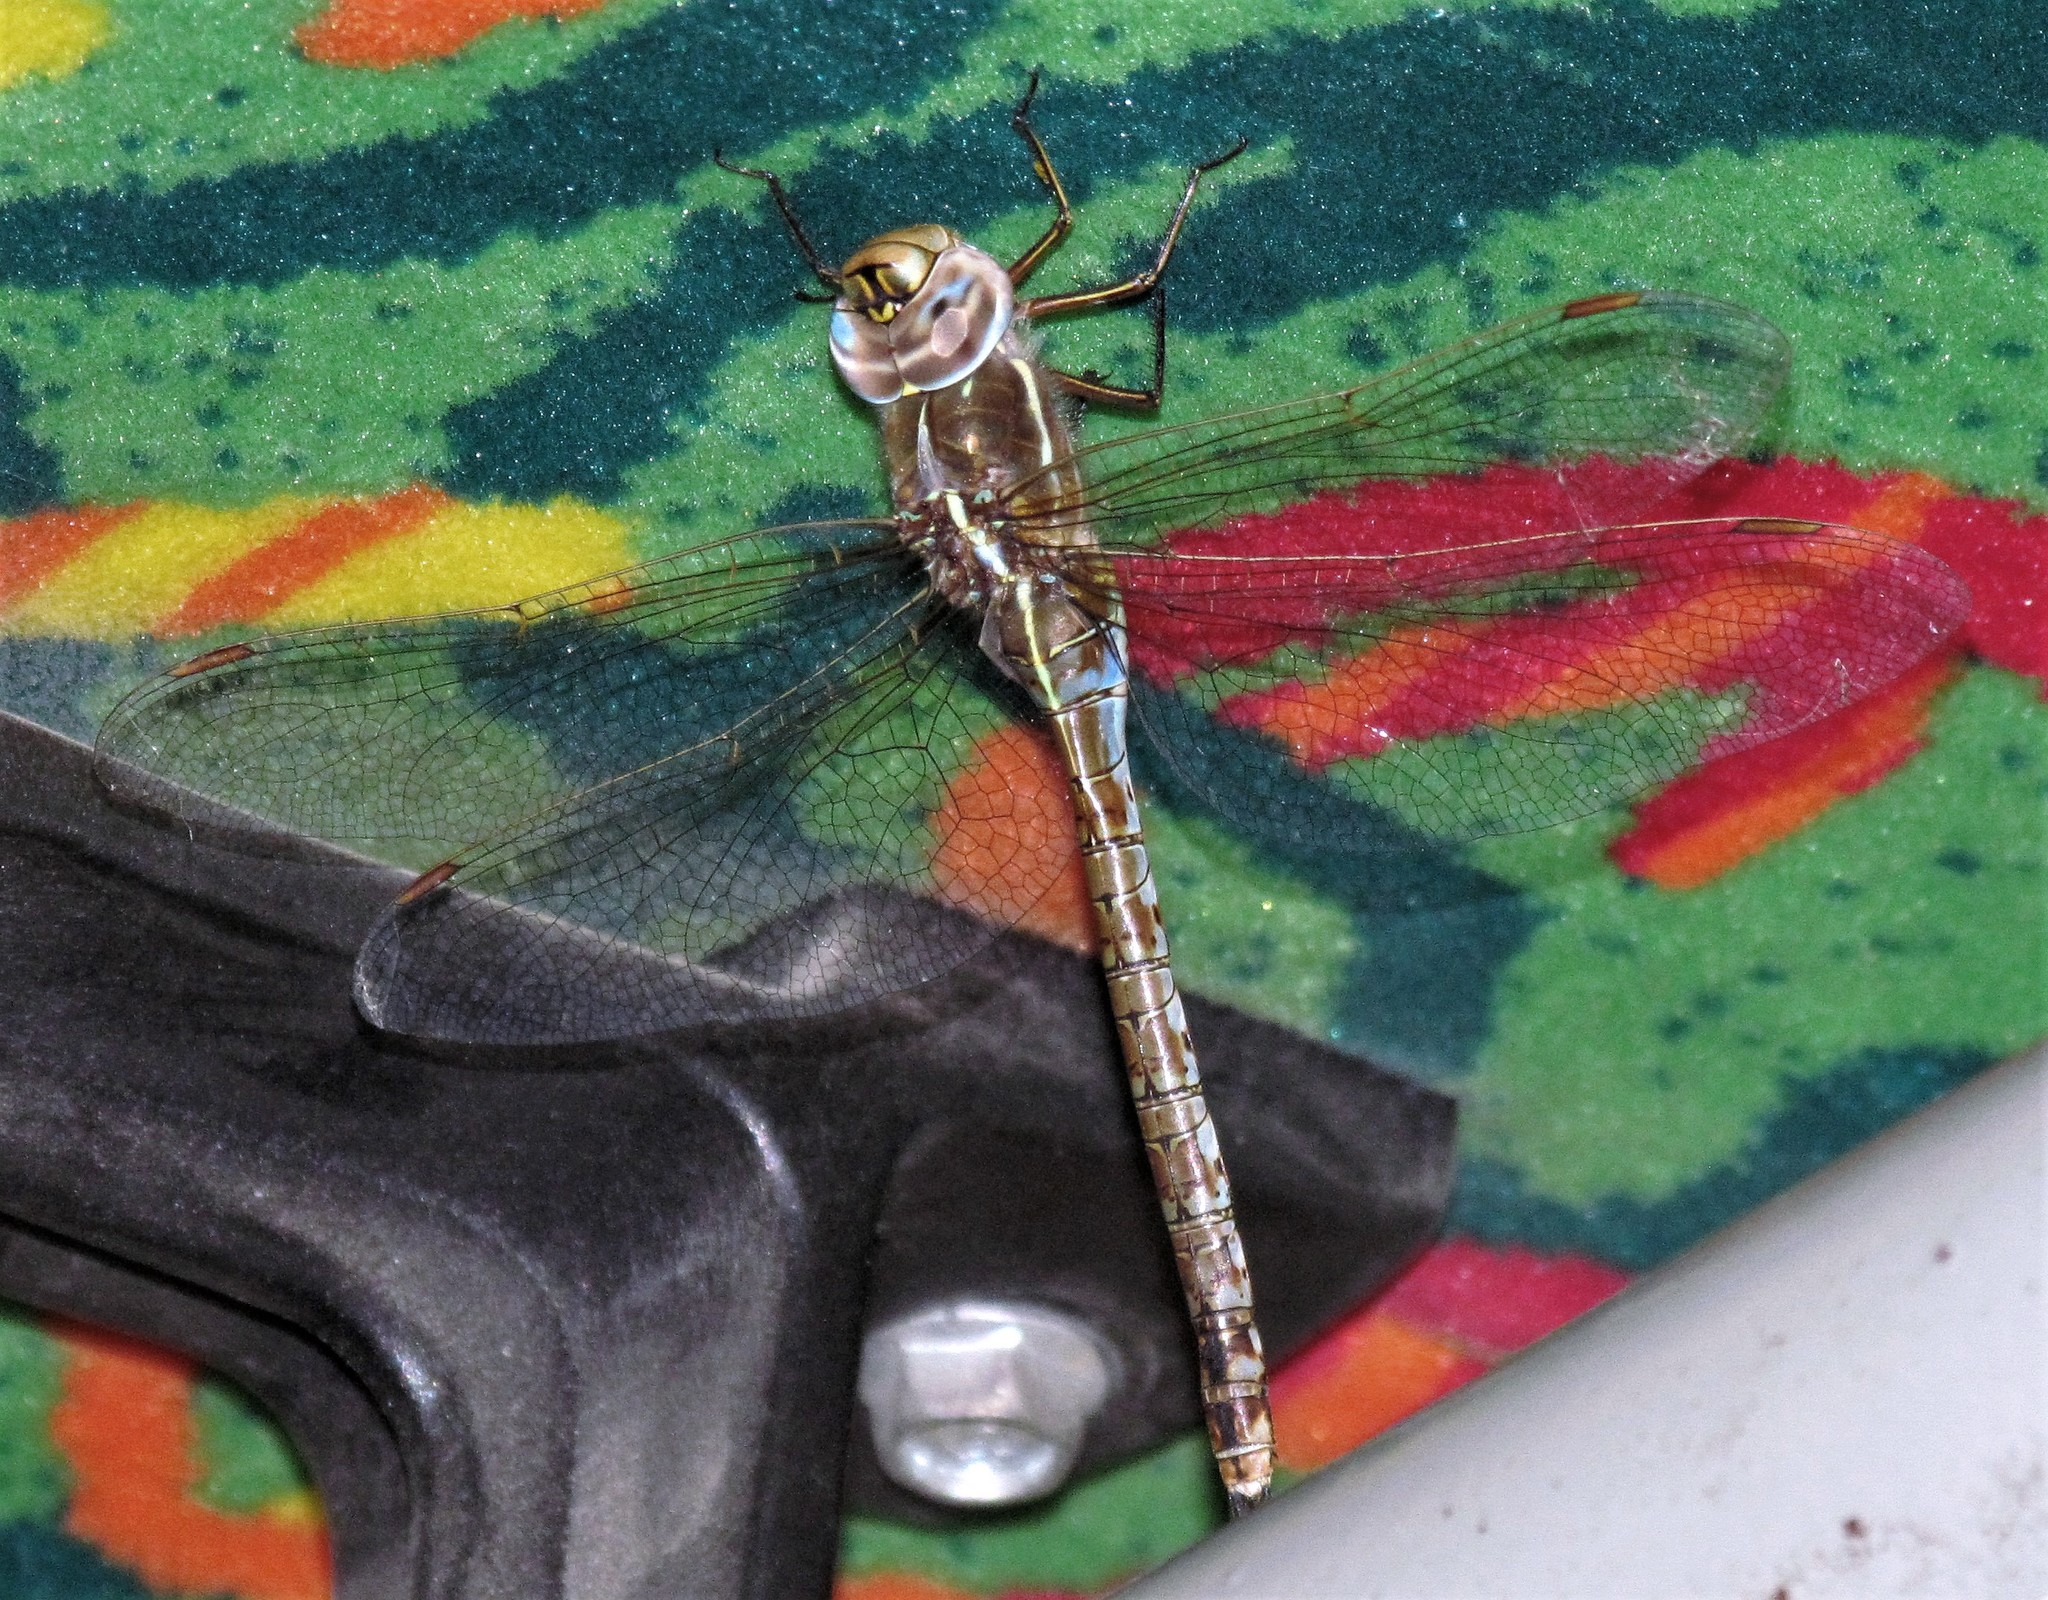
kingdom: Animalia
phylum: Arthropoda
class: Insecta
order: Odonata
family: Aeshnidae
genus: Rhionaeschna
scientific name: Rhionaeschna bonariensis
